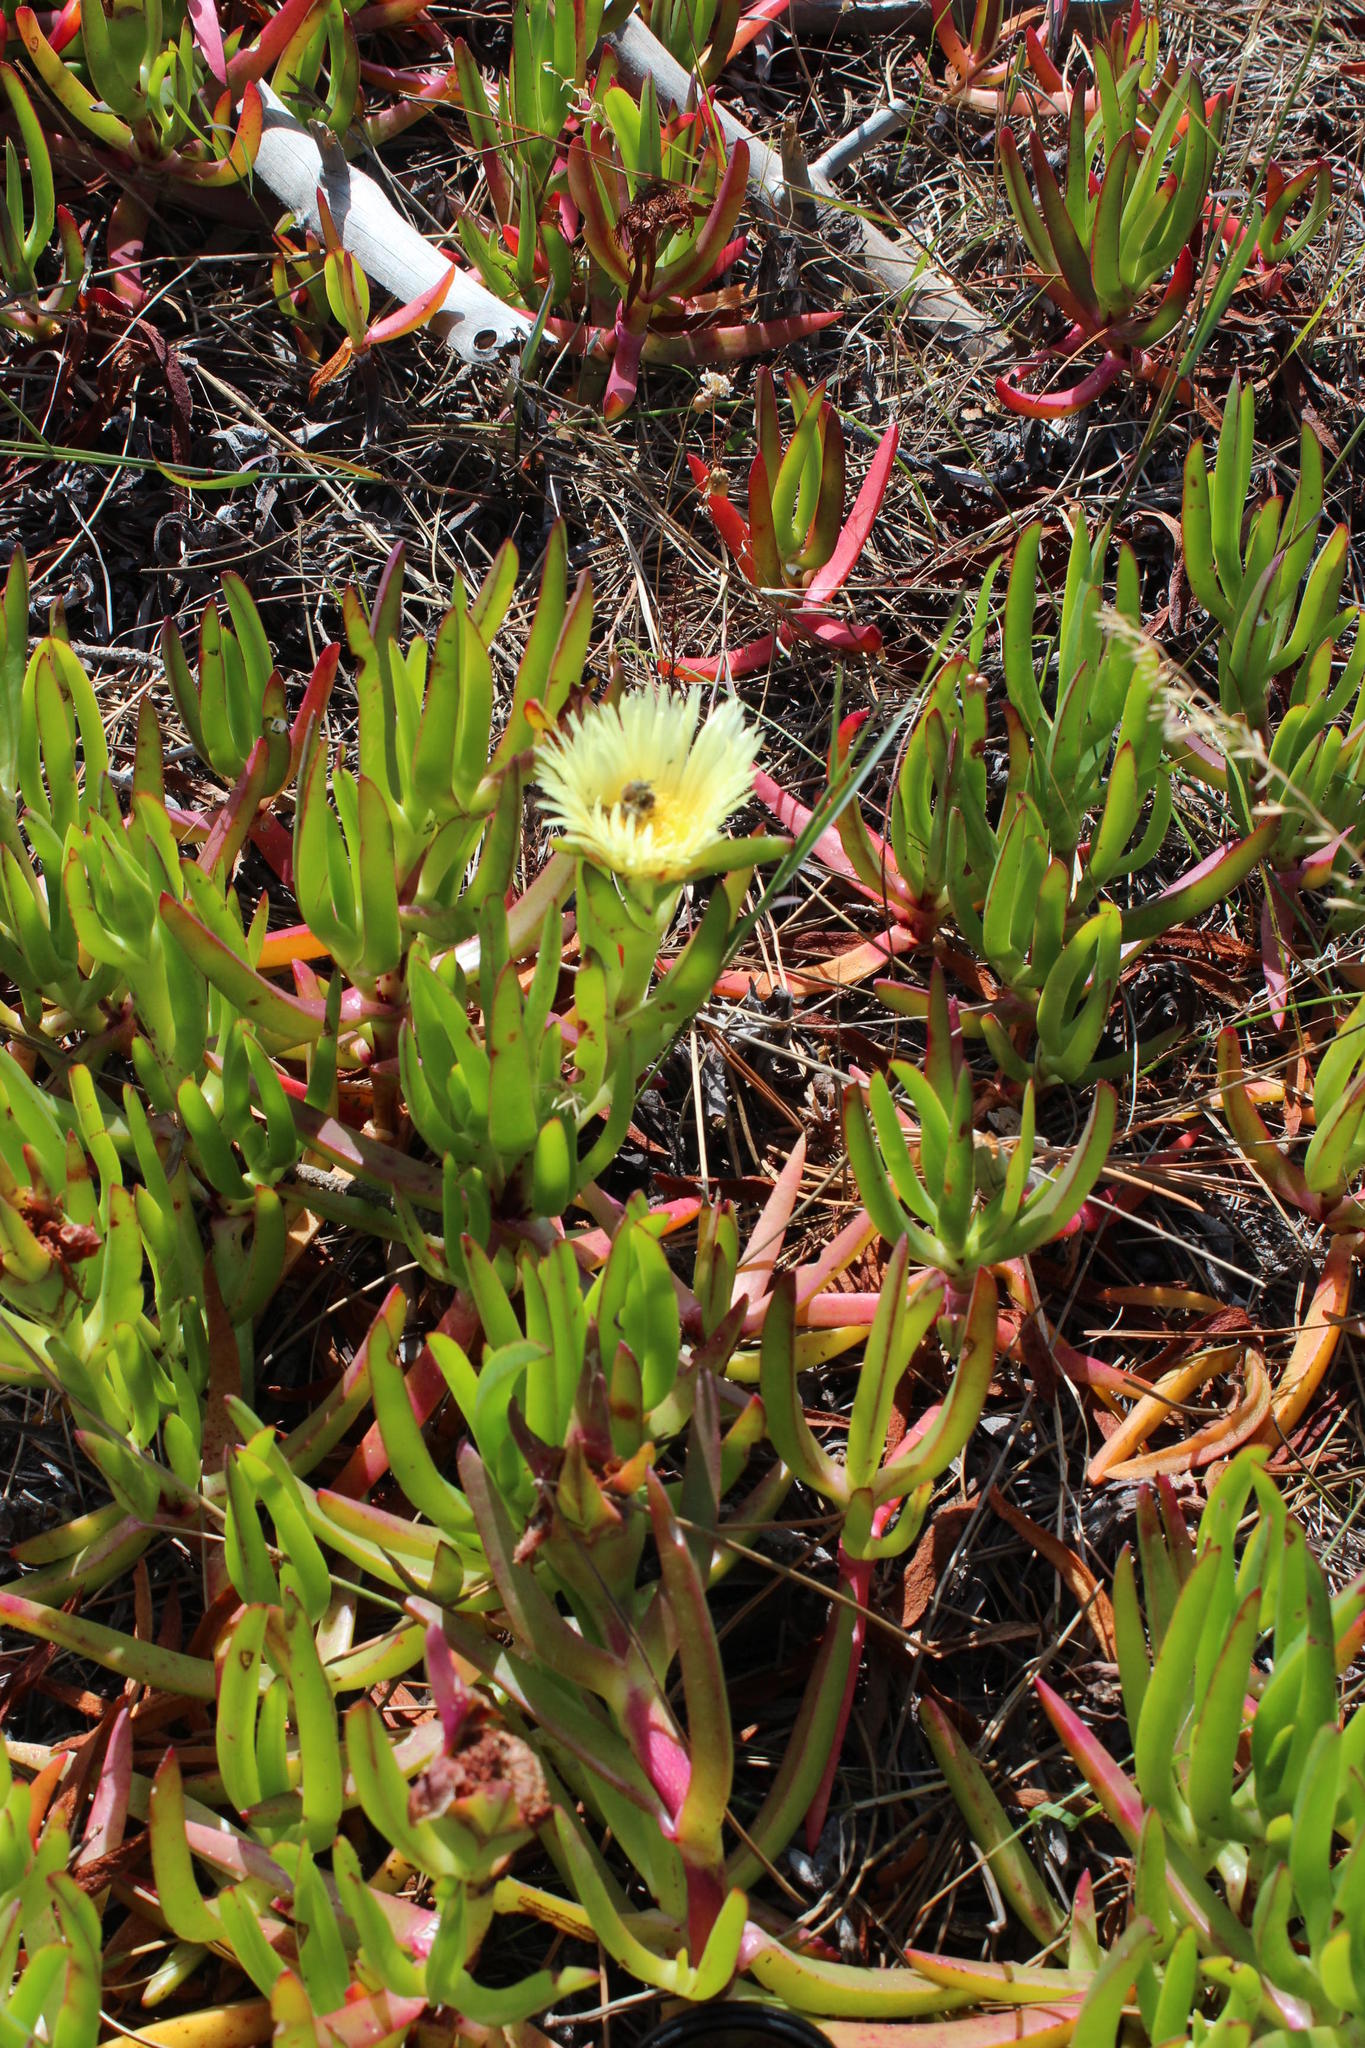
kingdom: Plantae
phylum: Tracheophyta
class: Magnoliopsida
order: Caryophyllales
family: Aizoaceae
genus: Carpobrotus
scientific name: Carpobrotus edulis
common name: Hottentot-fig
